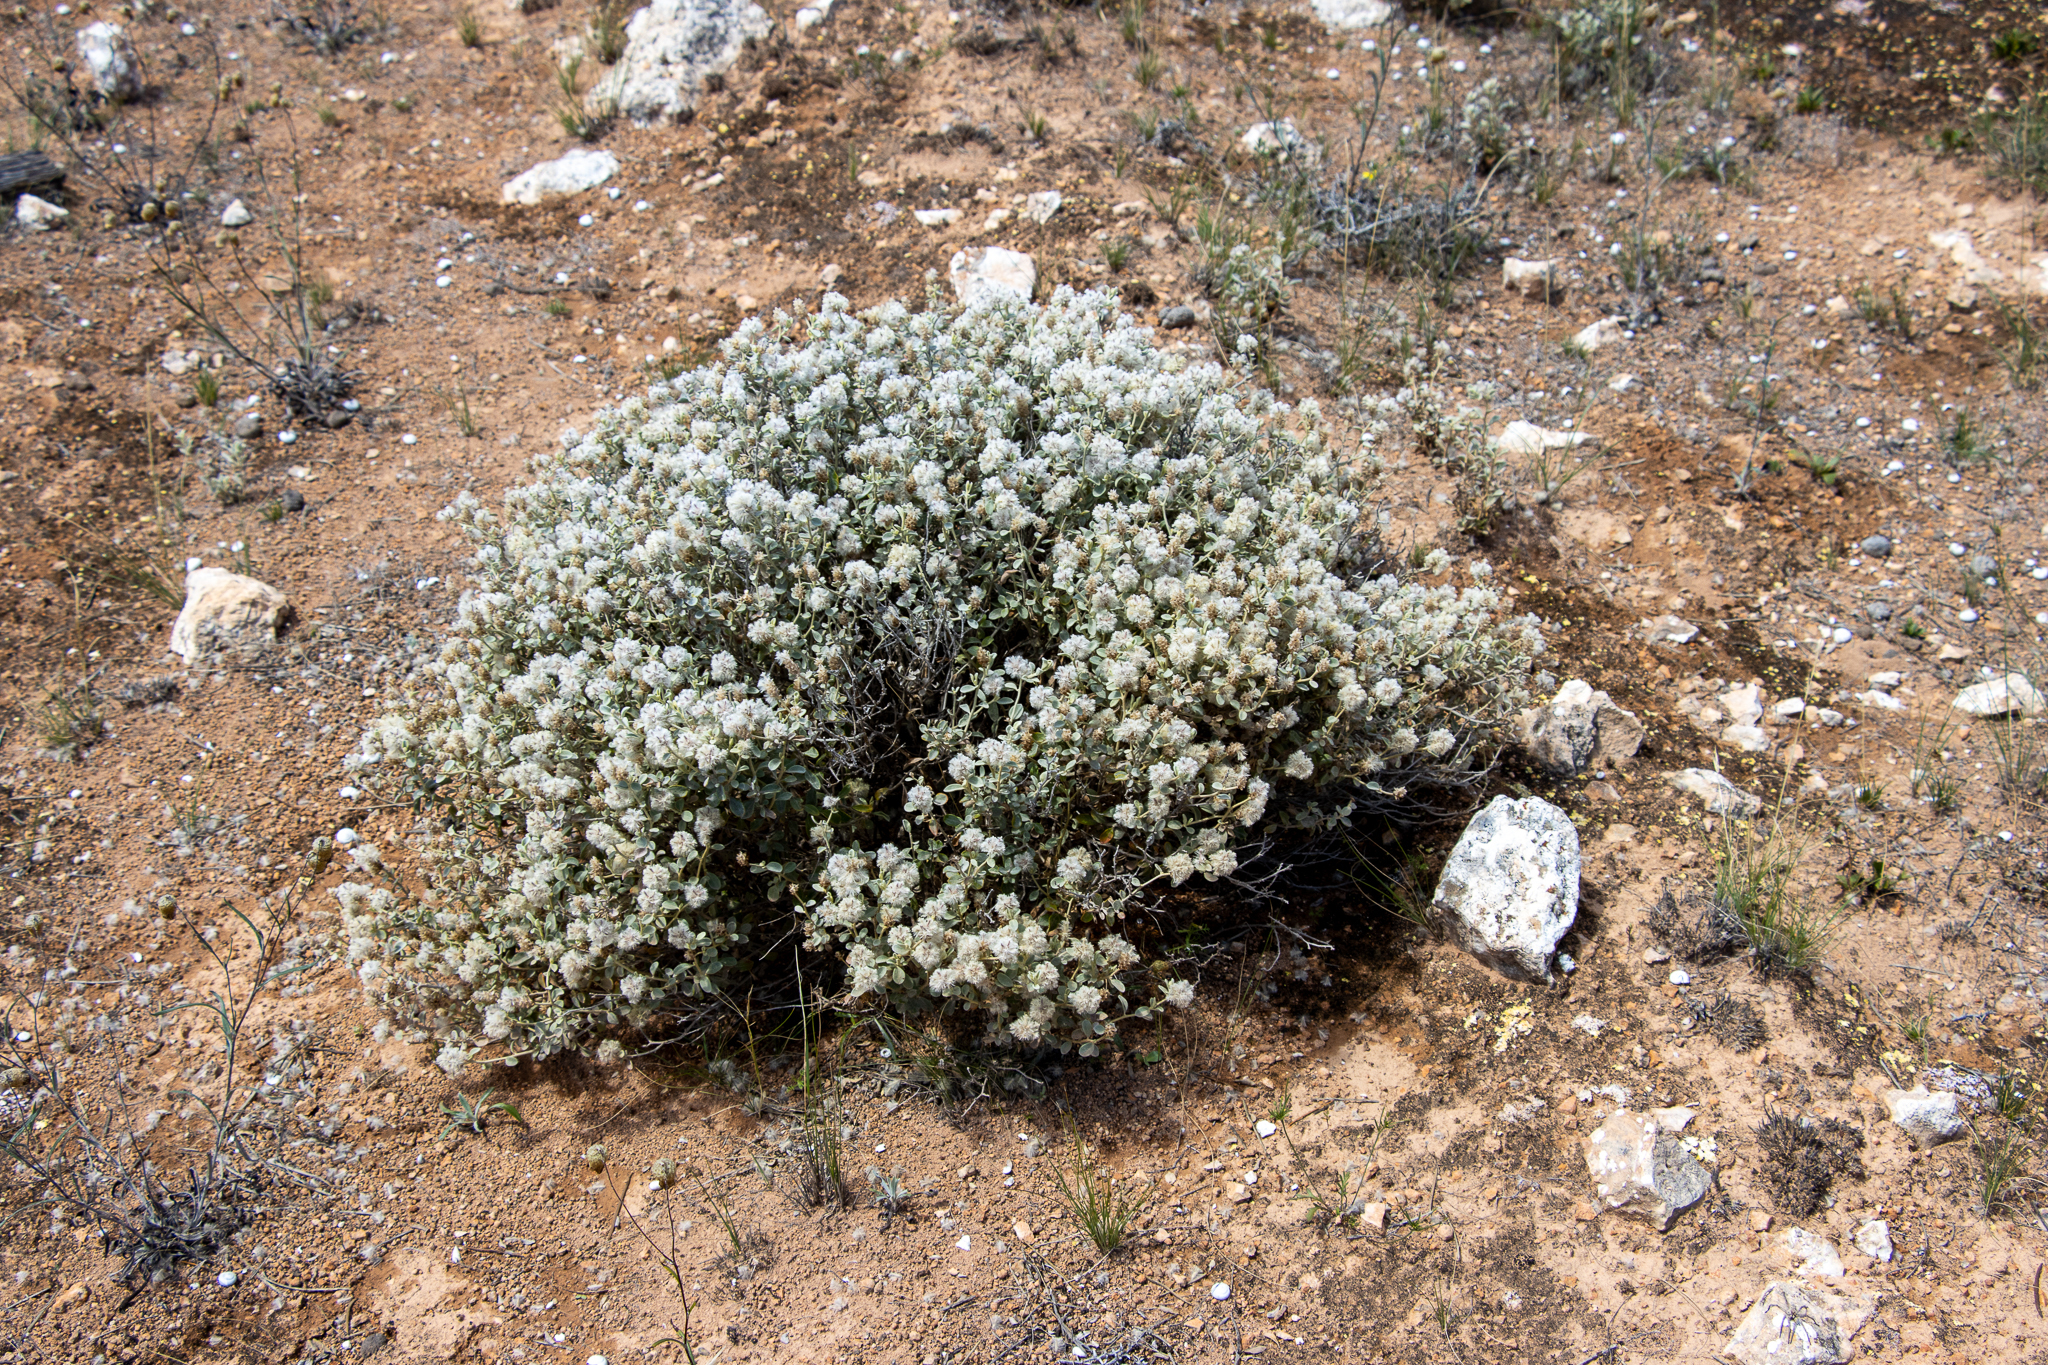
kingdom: Plantae
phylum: Tracheophyta
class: Magnoliopsida
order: Caryophyllales
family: Amaranthaceae
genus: Ptilotus
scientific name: Ptilotus obovatus
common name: Cottonbush
